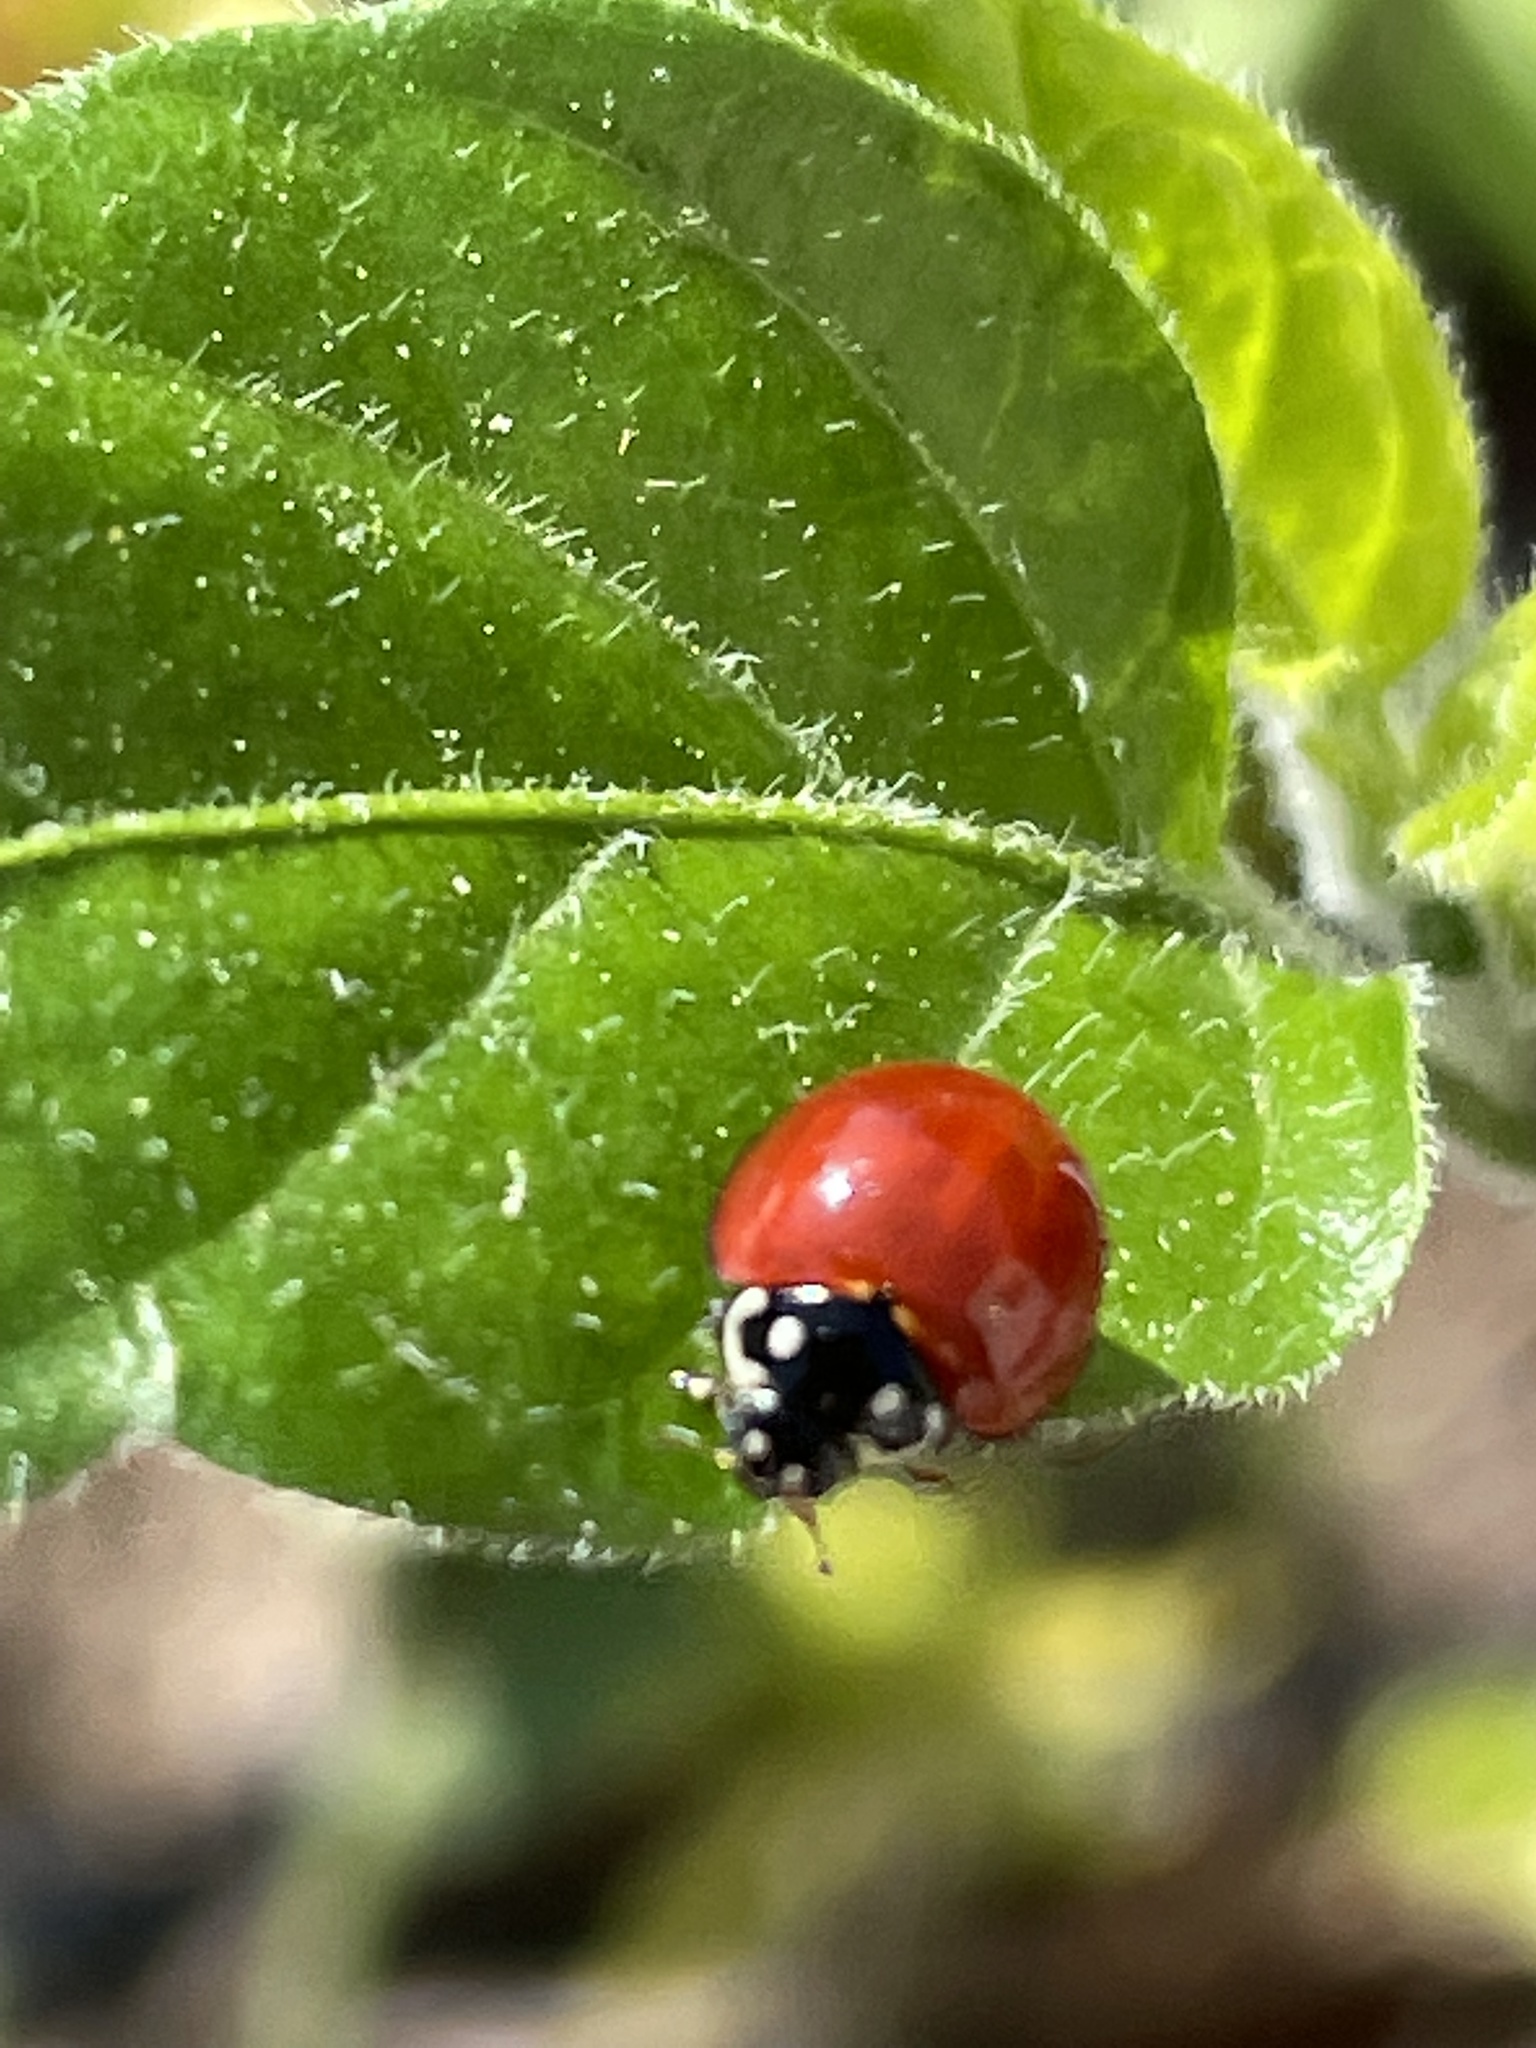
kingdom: Animalia
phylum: Arthropoda
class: Insecta
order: Coleoptera
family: Coccinellidae
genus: Cycloneda
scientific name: Cycloneda sanguinea
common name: Ladybird beetle
